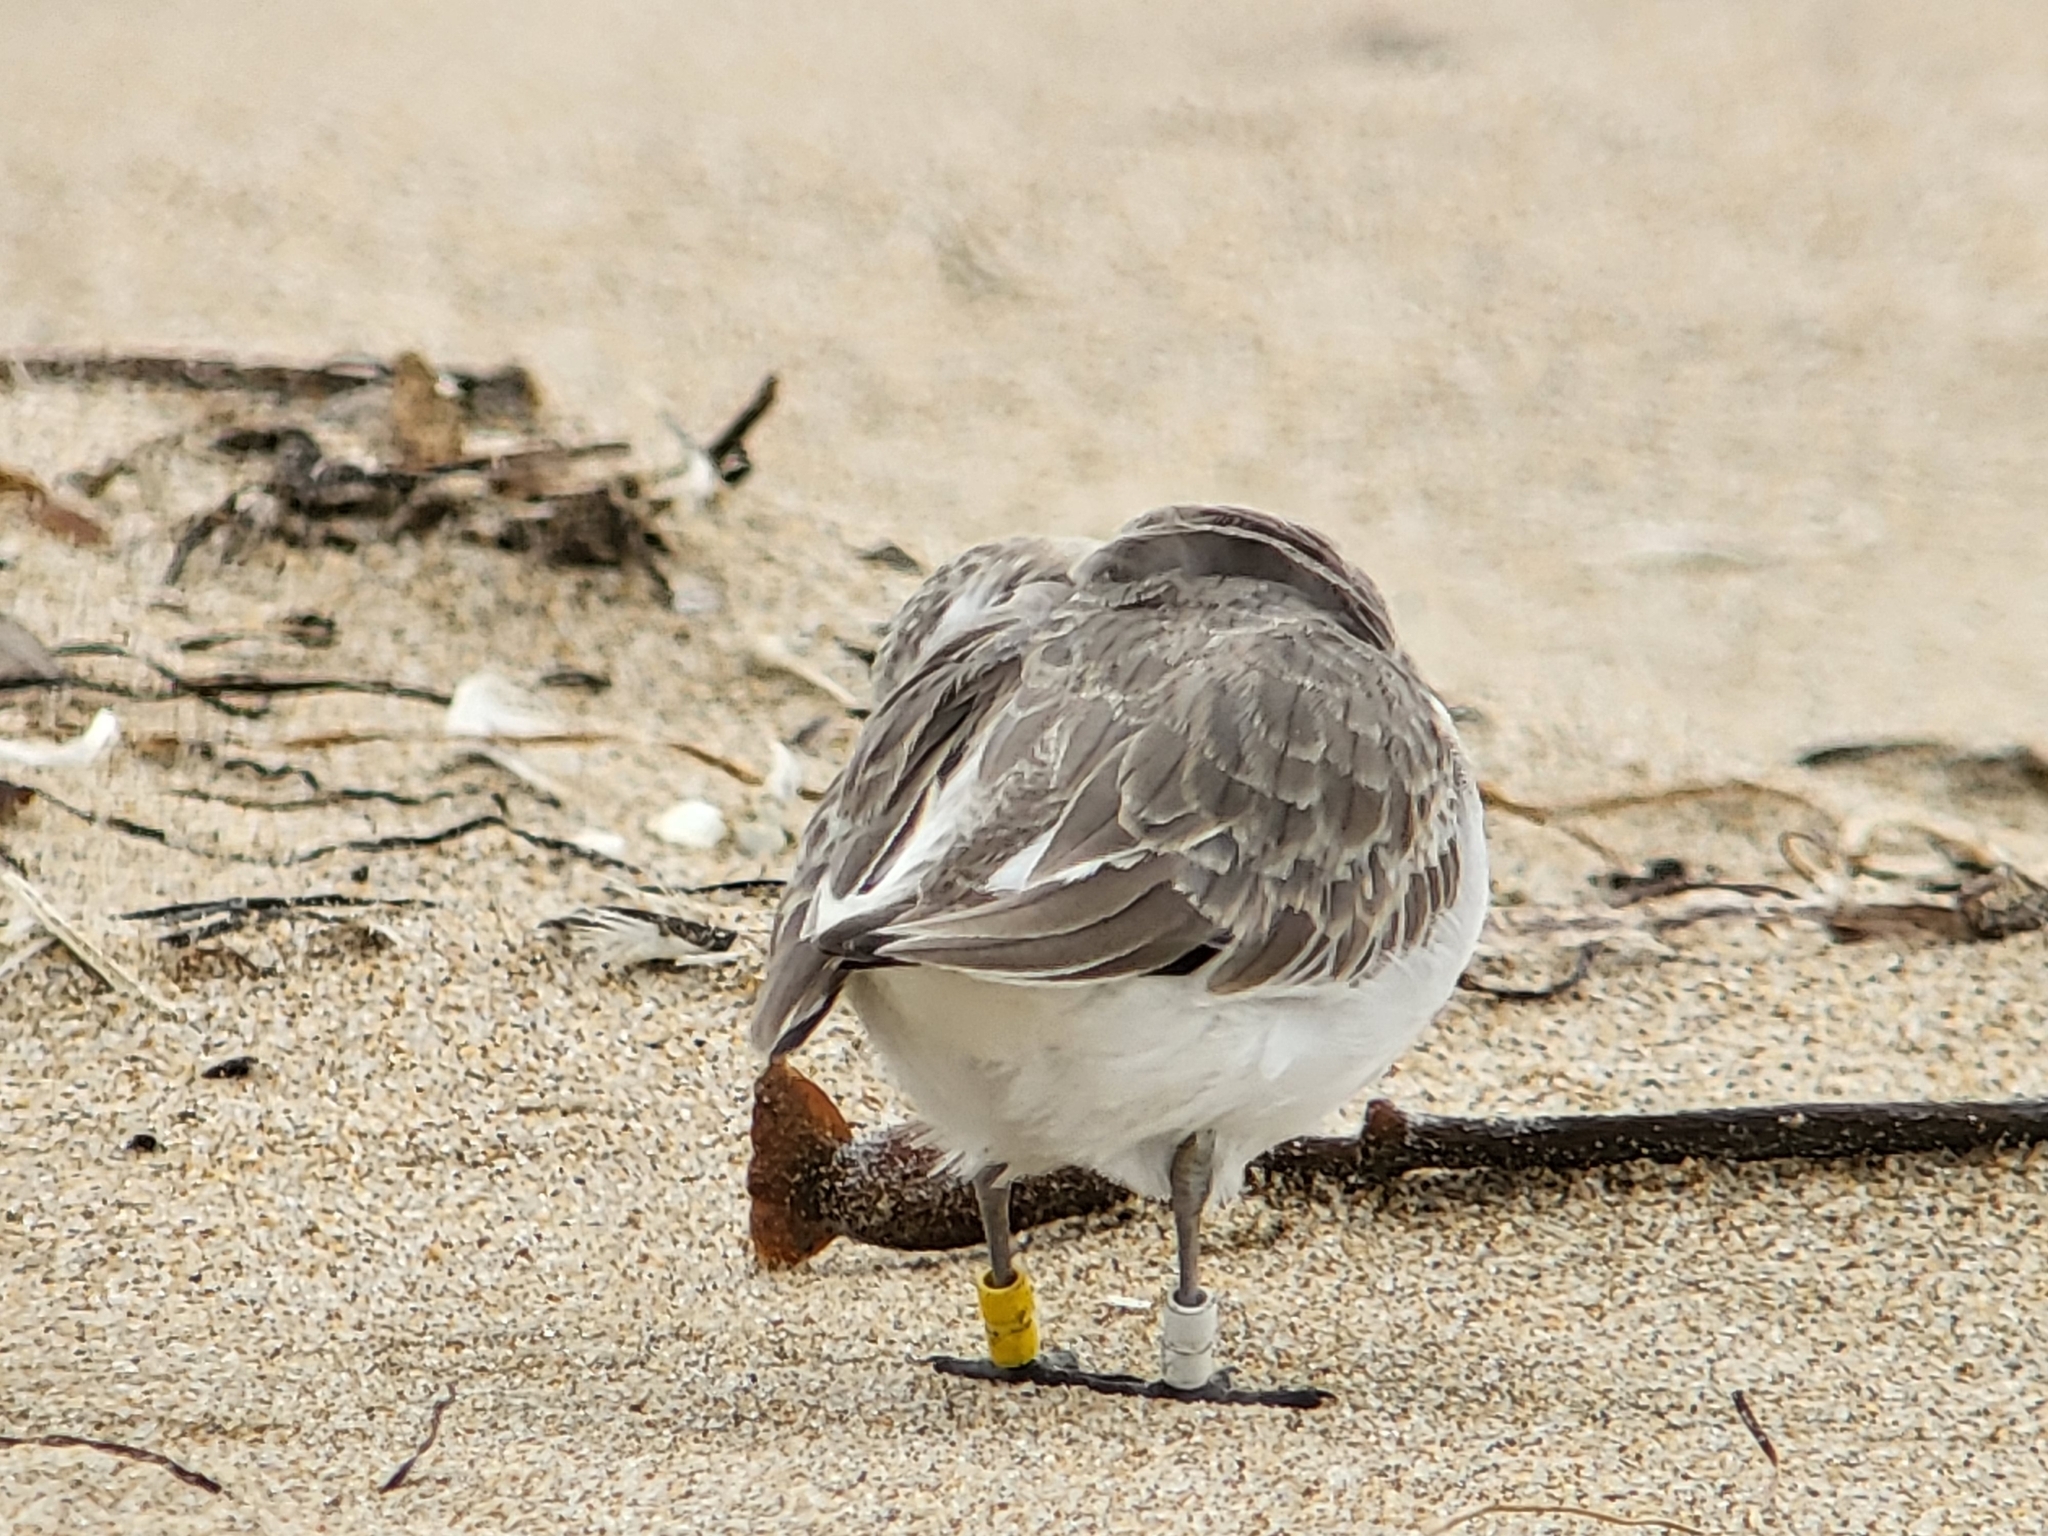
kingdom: Animalia
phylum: Chordata
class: Aves
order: Charadriiformes
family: Charadriidae
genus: Anarhynchus
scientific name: Anarhynchus
